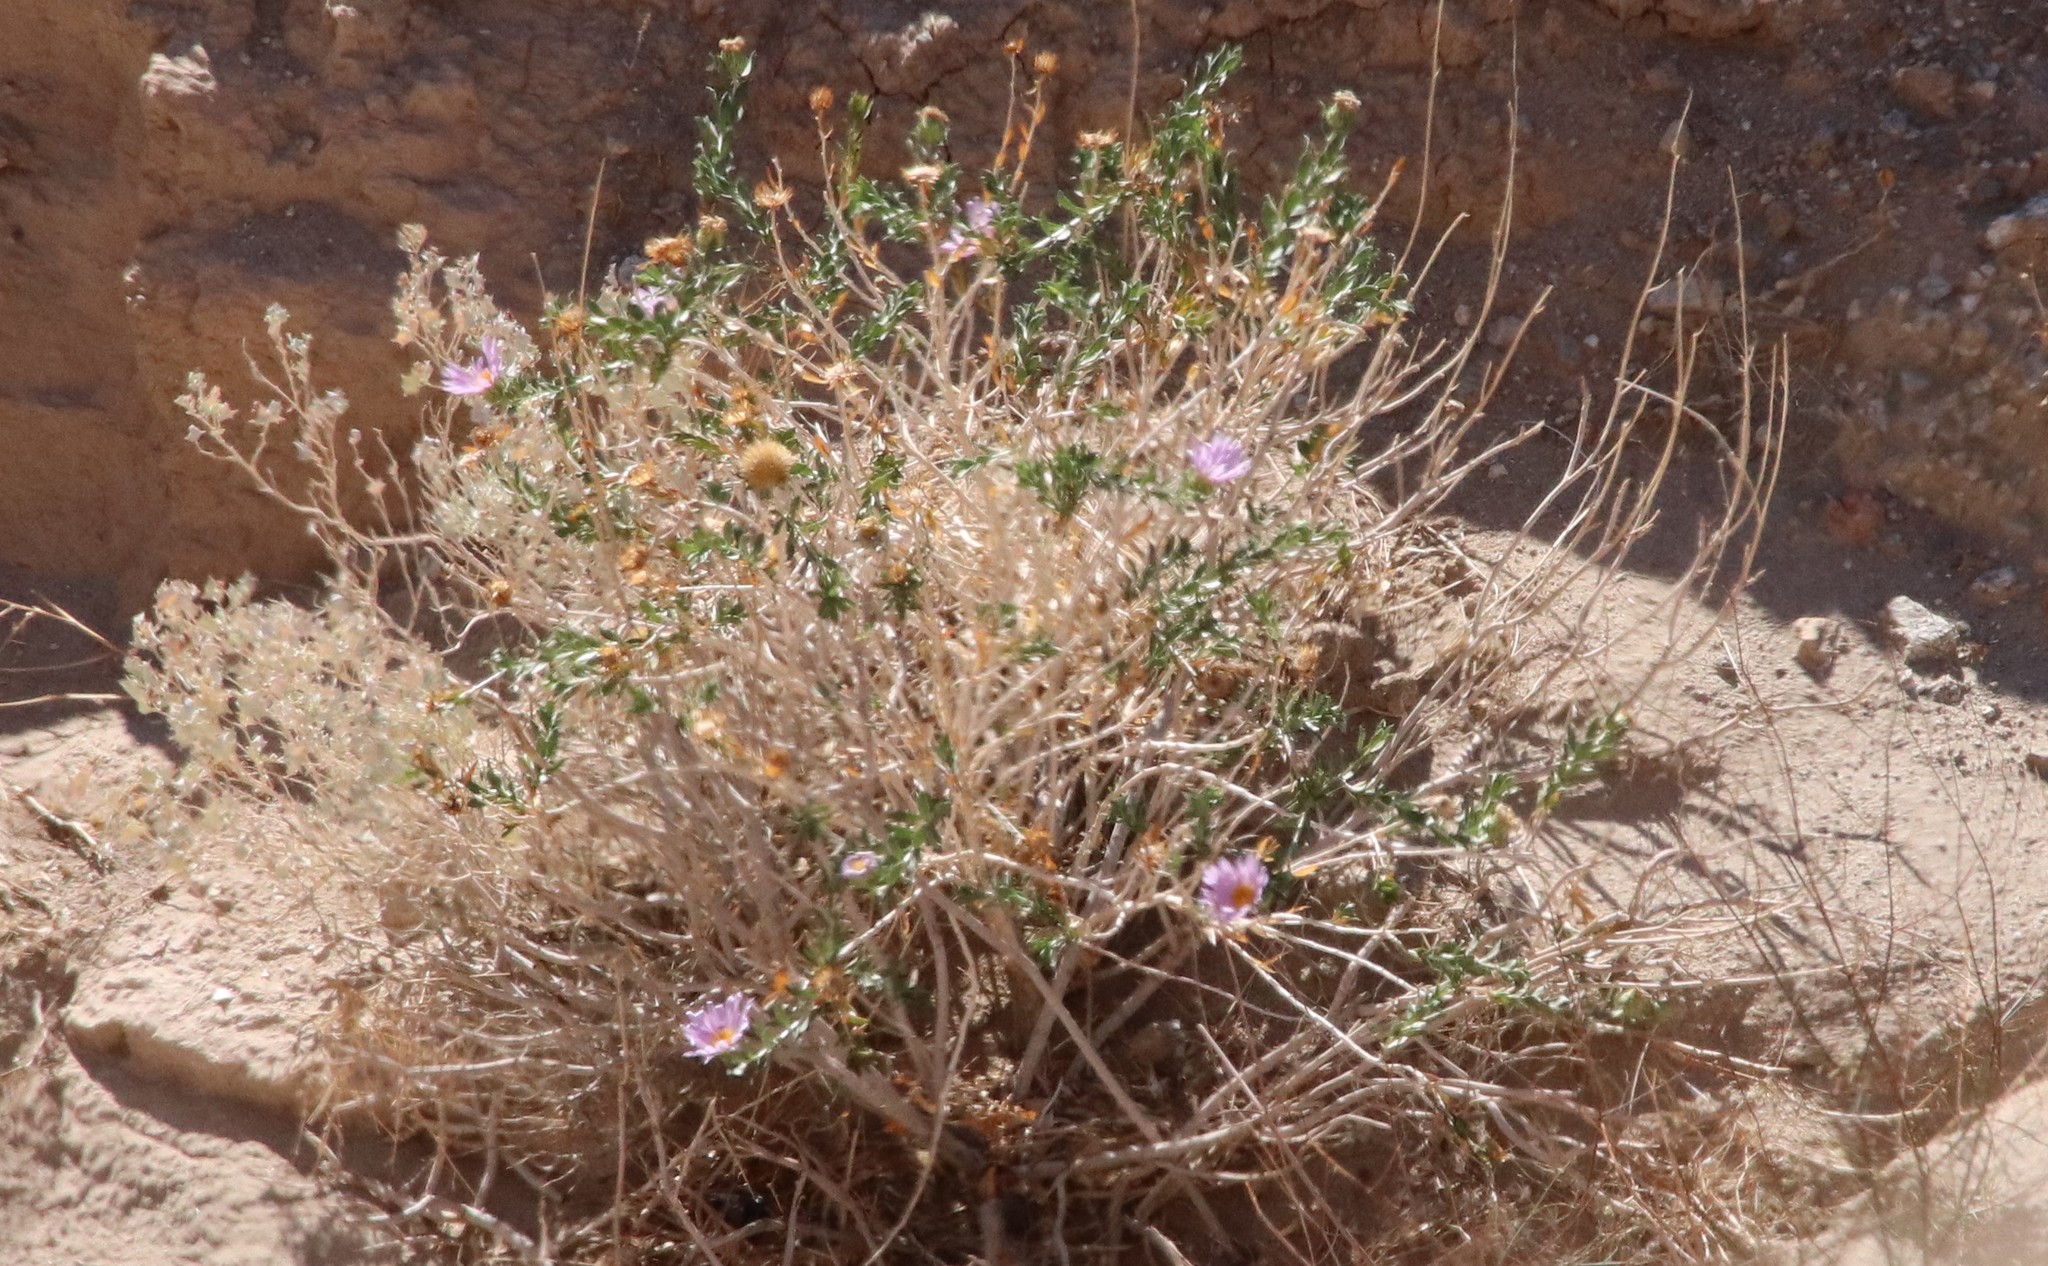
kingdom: Plantae
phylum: Tracheophyta
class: Magnoliopsida
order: Asterales
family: Asteraceae
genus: Xylorhiza
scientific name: Xylorhiza orcuttii
